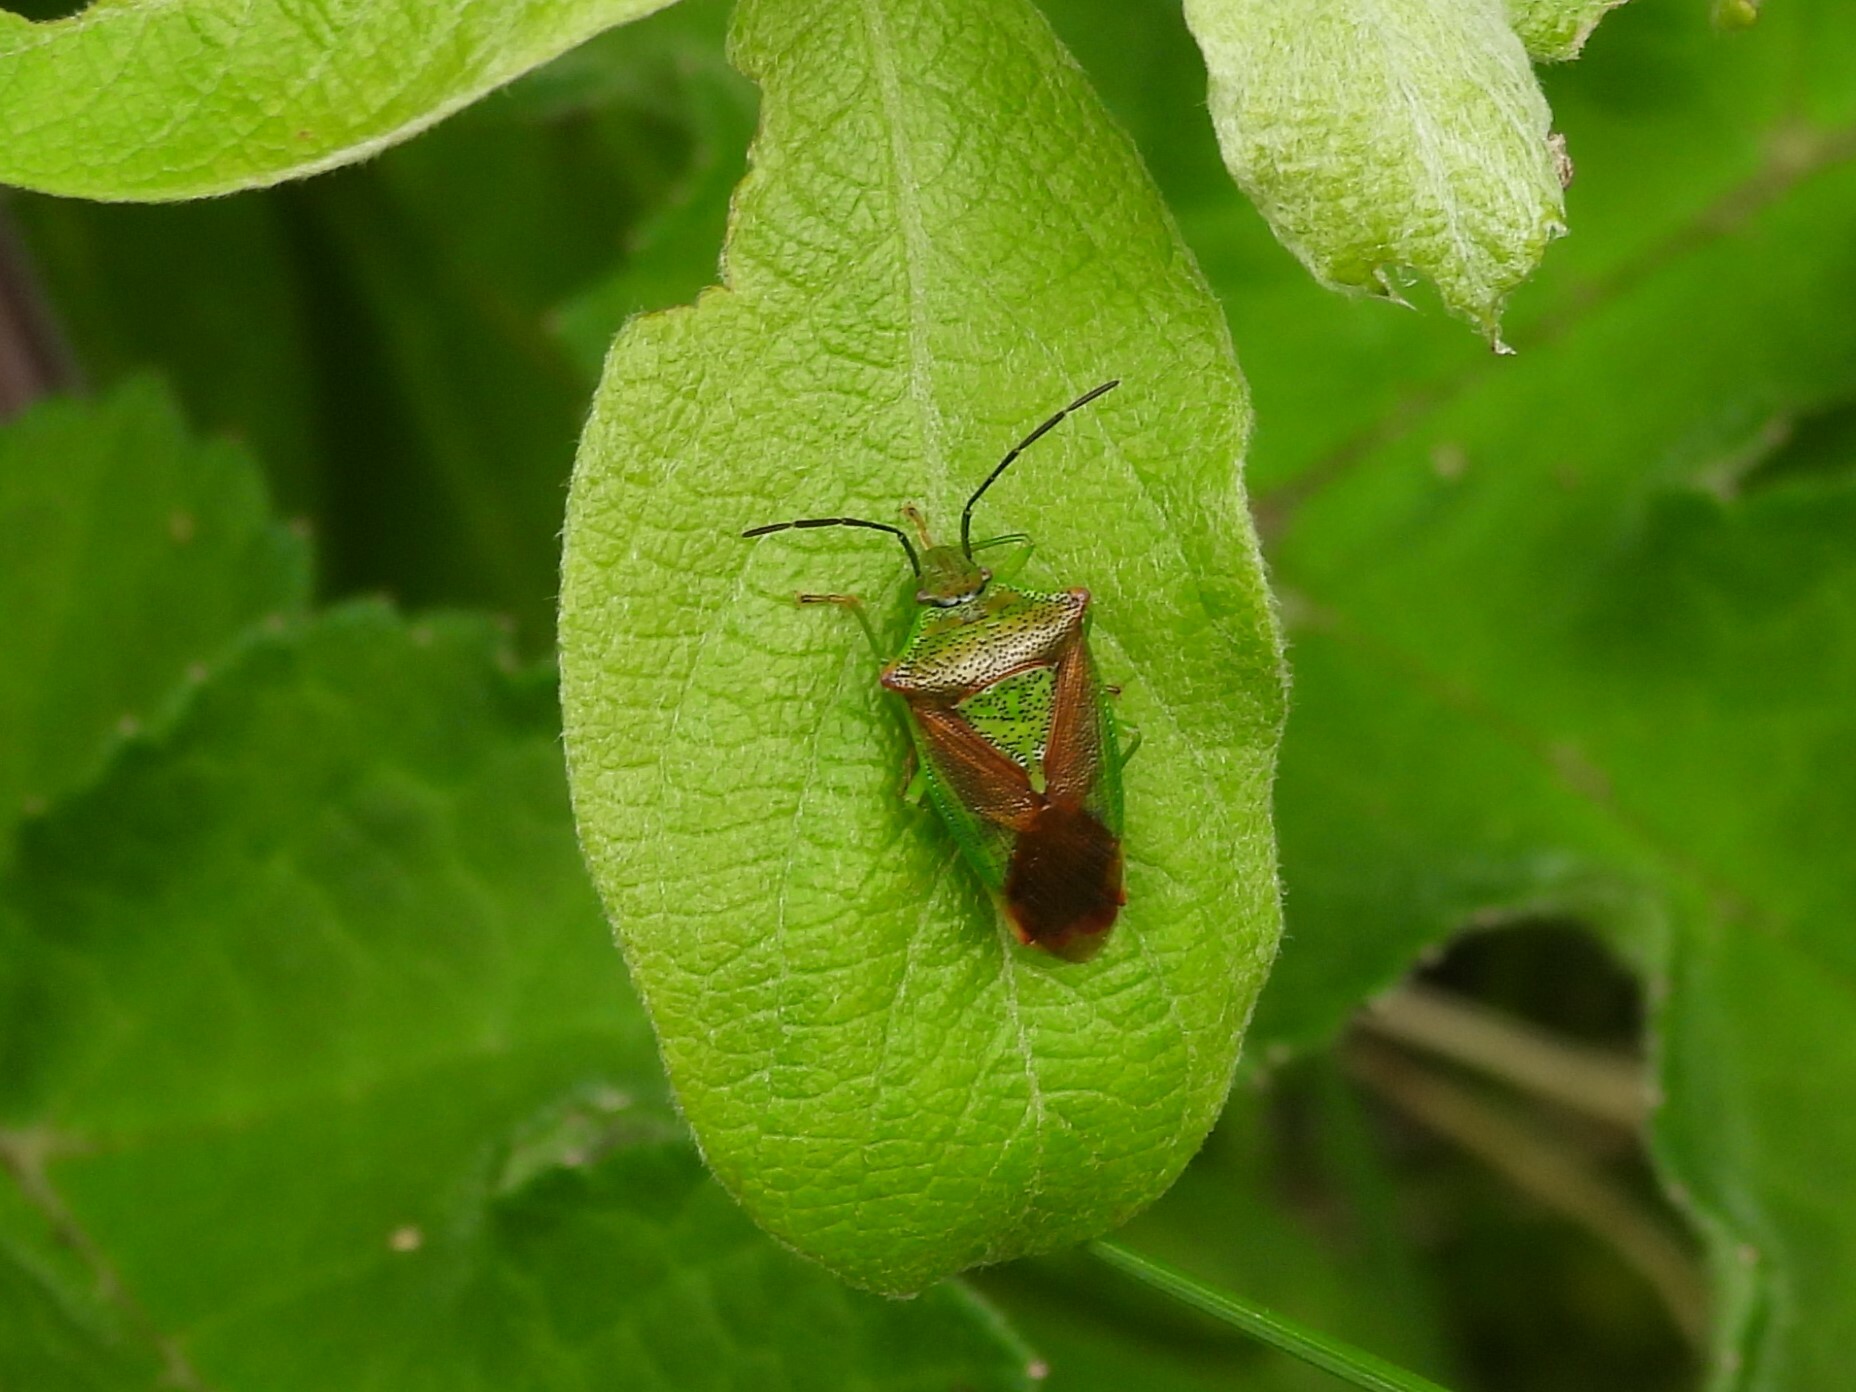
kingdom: Animalia
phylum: Arthropoda
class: Insecta
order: Hemiptera
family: Acanthosomatidae
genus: Acanthosoma
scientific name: Acanthosoma haemorrhoidale
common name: Hawthorn shieldbug
